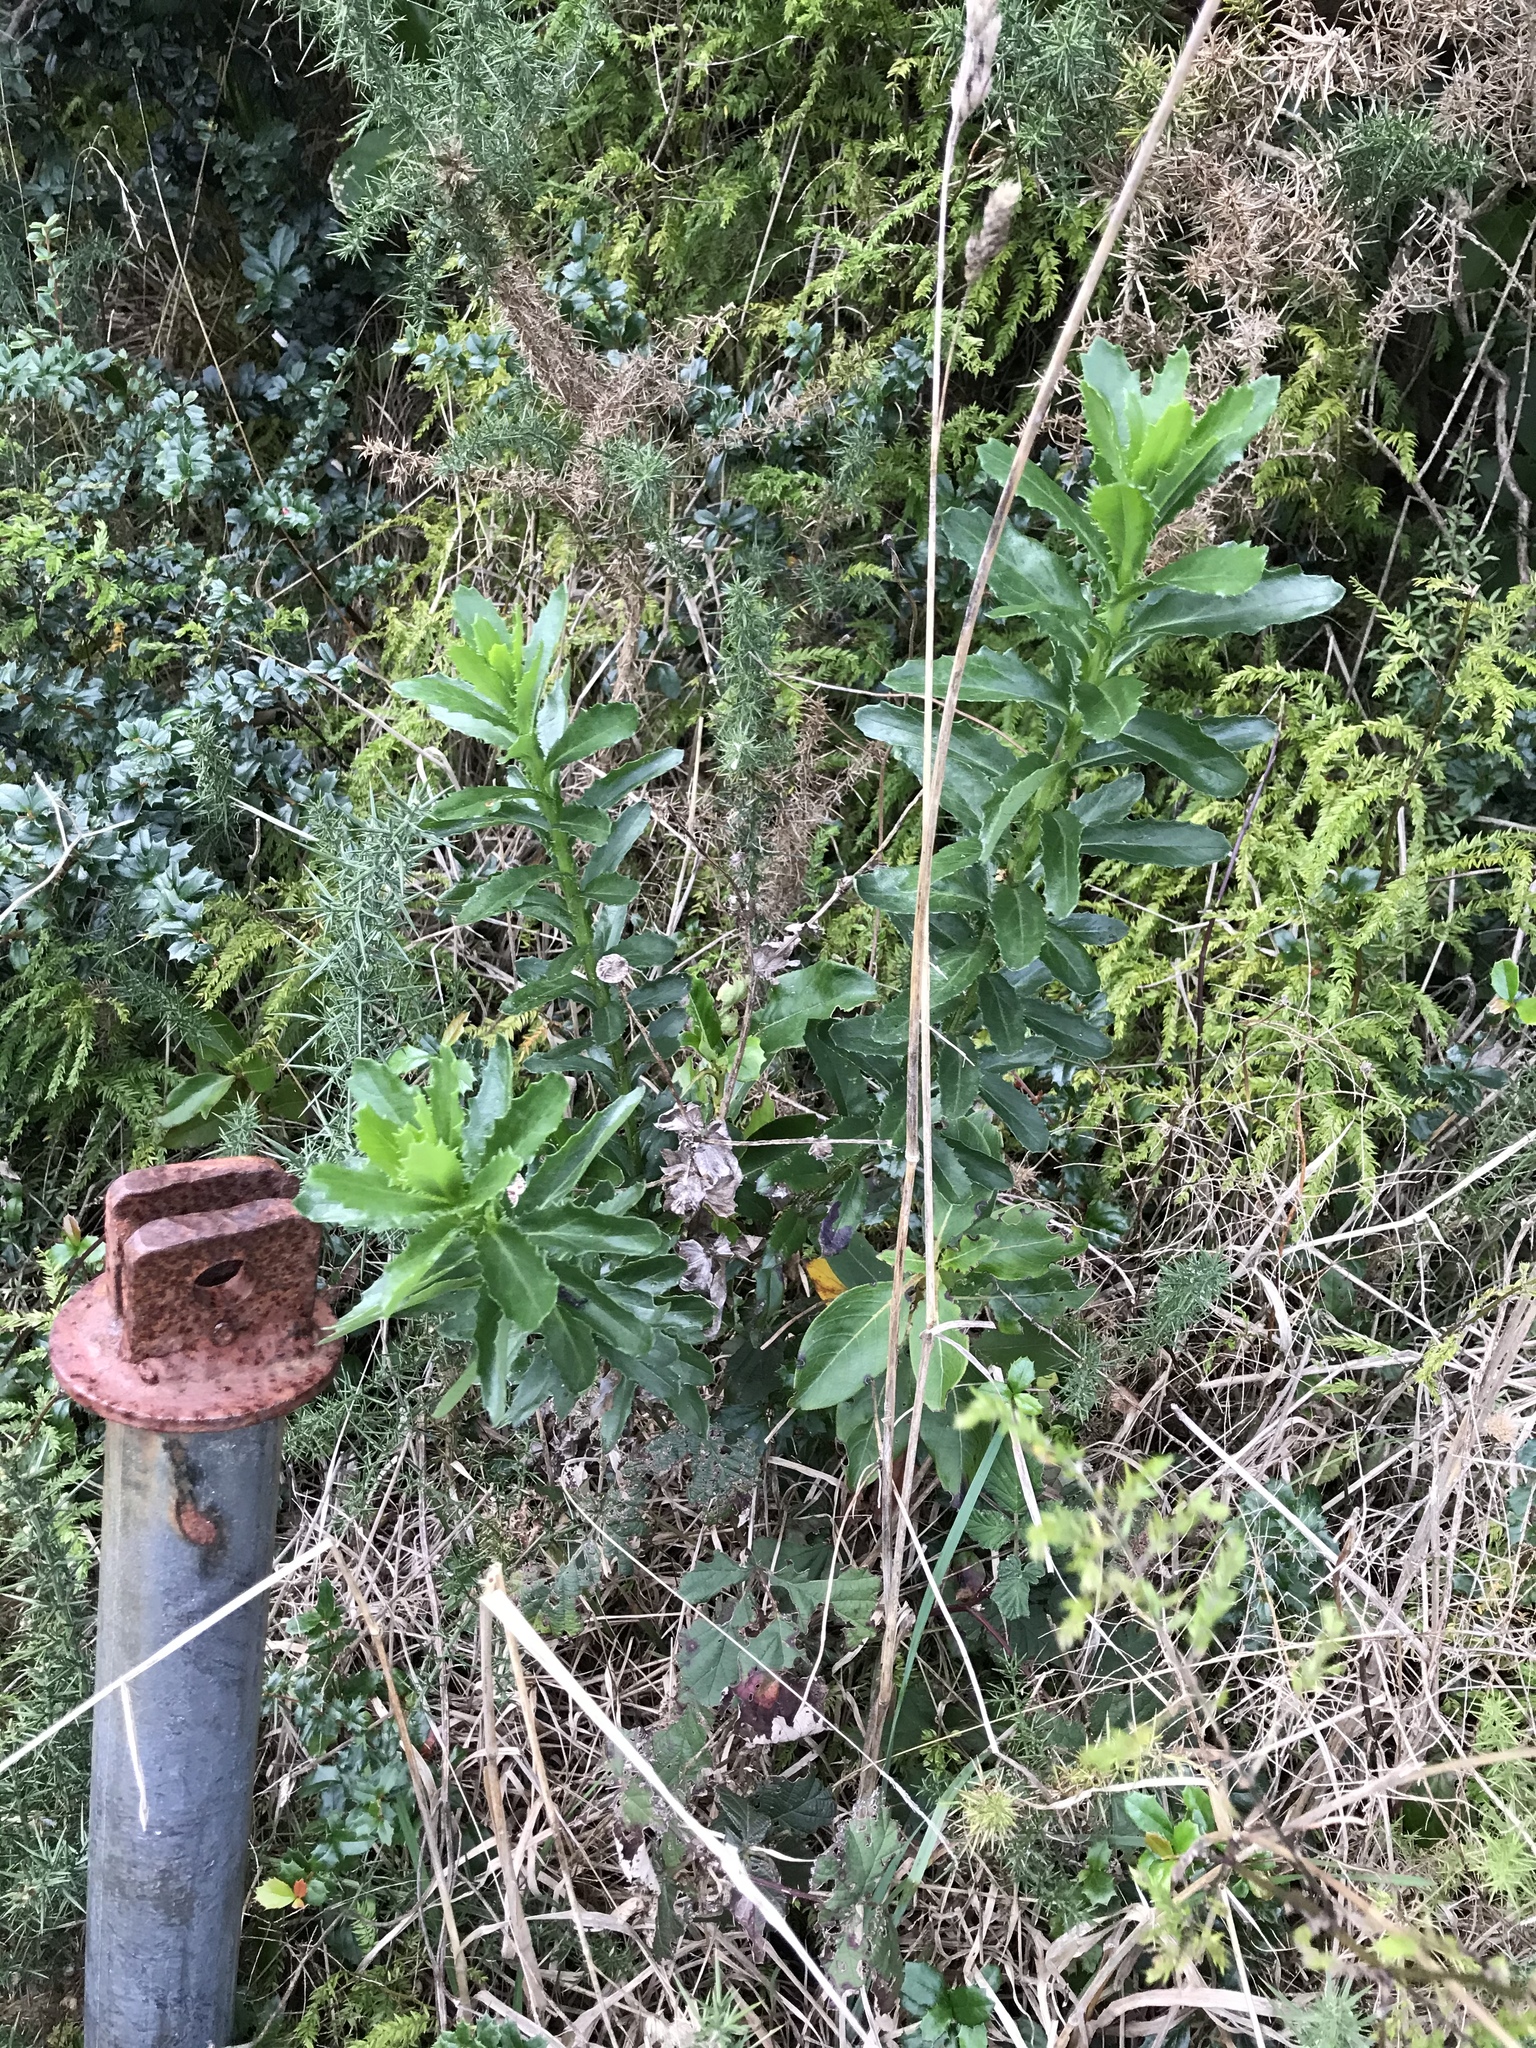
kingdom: Plantae
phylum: Tracheophyta
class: Magnoliopsida
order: Asterales
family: Asteraceae
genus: Senecio
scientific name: Senecio glastifolius
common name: Woad-leaved ragwort
